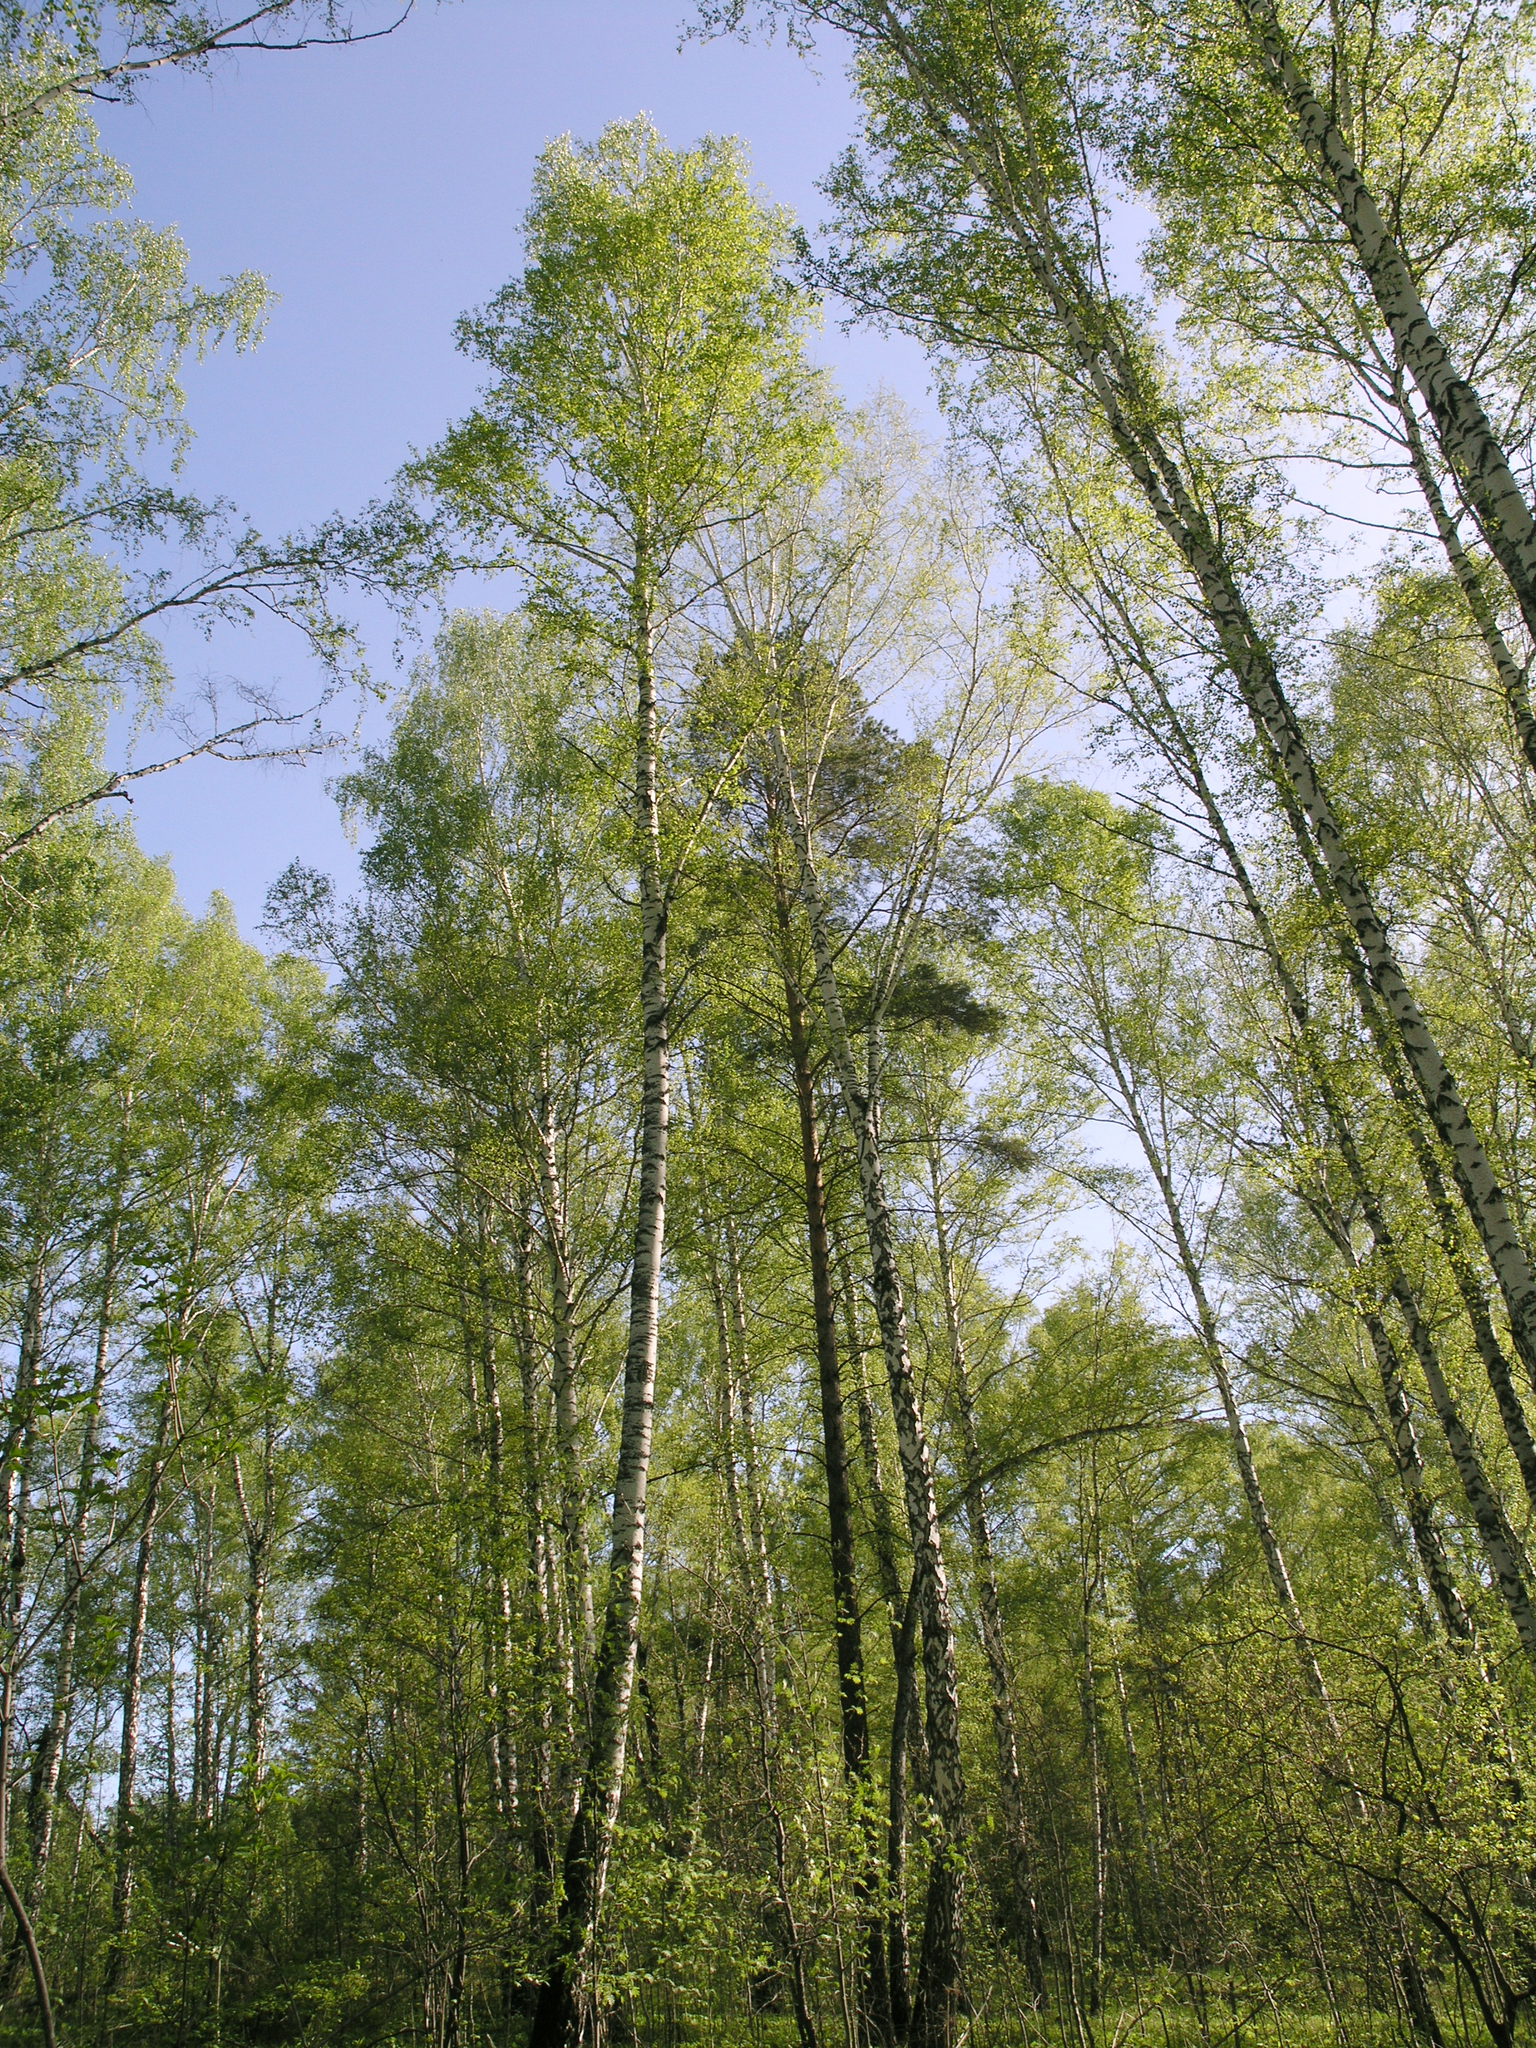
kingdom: Plantae
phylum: Tracheophyta
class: Magnoliopsida
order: Fagales
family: Betulaceae
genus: Betula
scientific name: Betula pendula
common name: Silver birch
